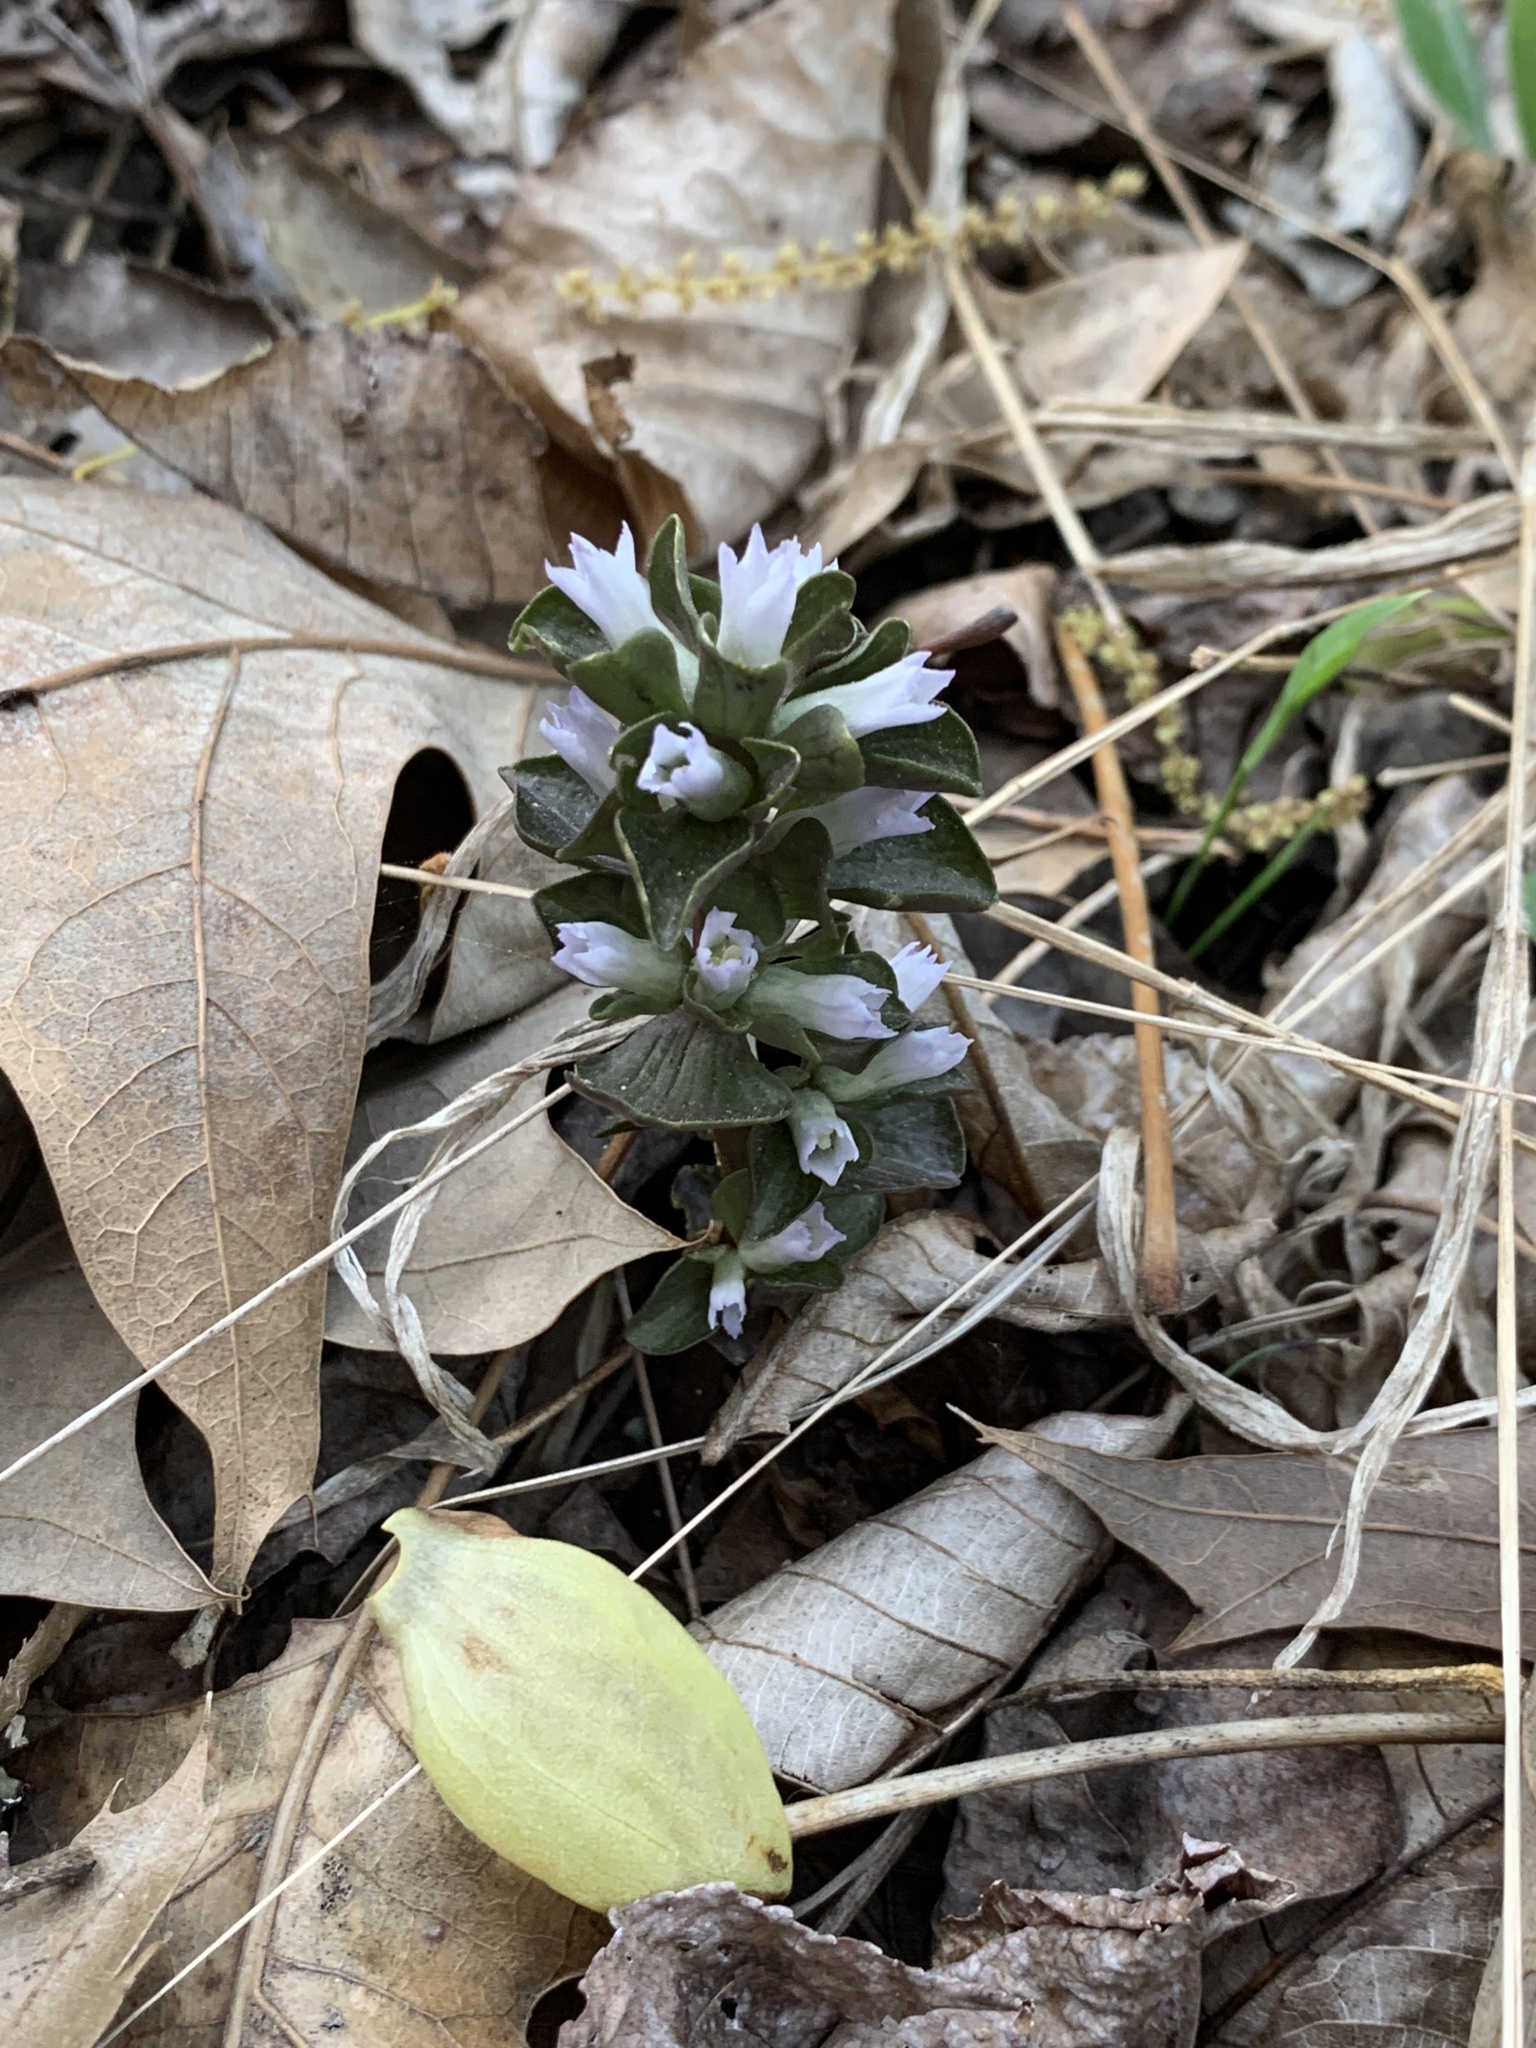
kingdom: Plantae
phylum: Tracheophyta
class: Magnoliopsida
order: Gentianales
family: Gentianaceae
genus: Obolaria
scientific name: Obolaria virginica
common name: Pennywort
